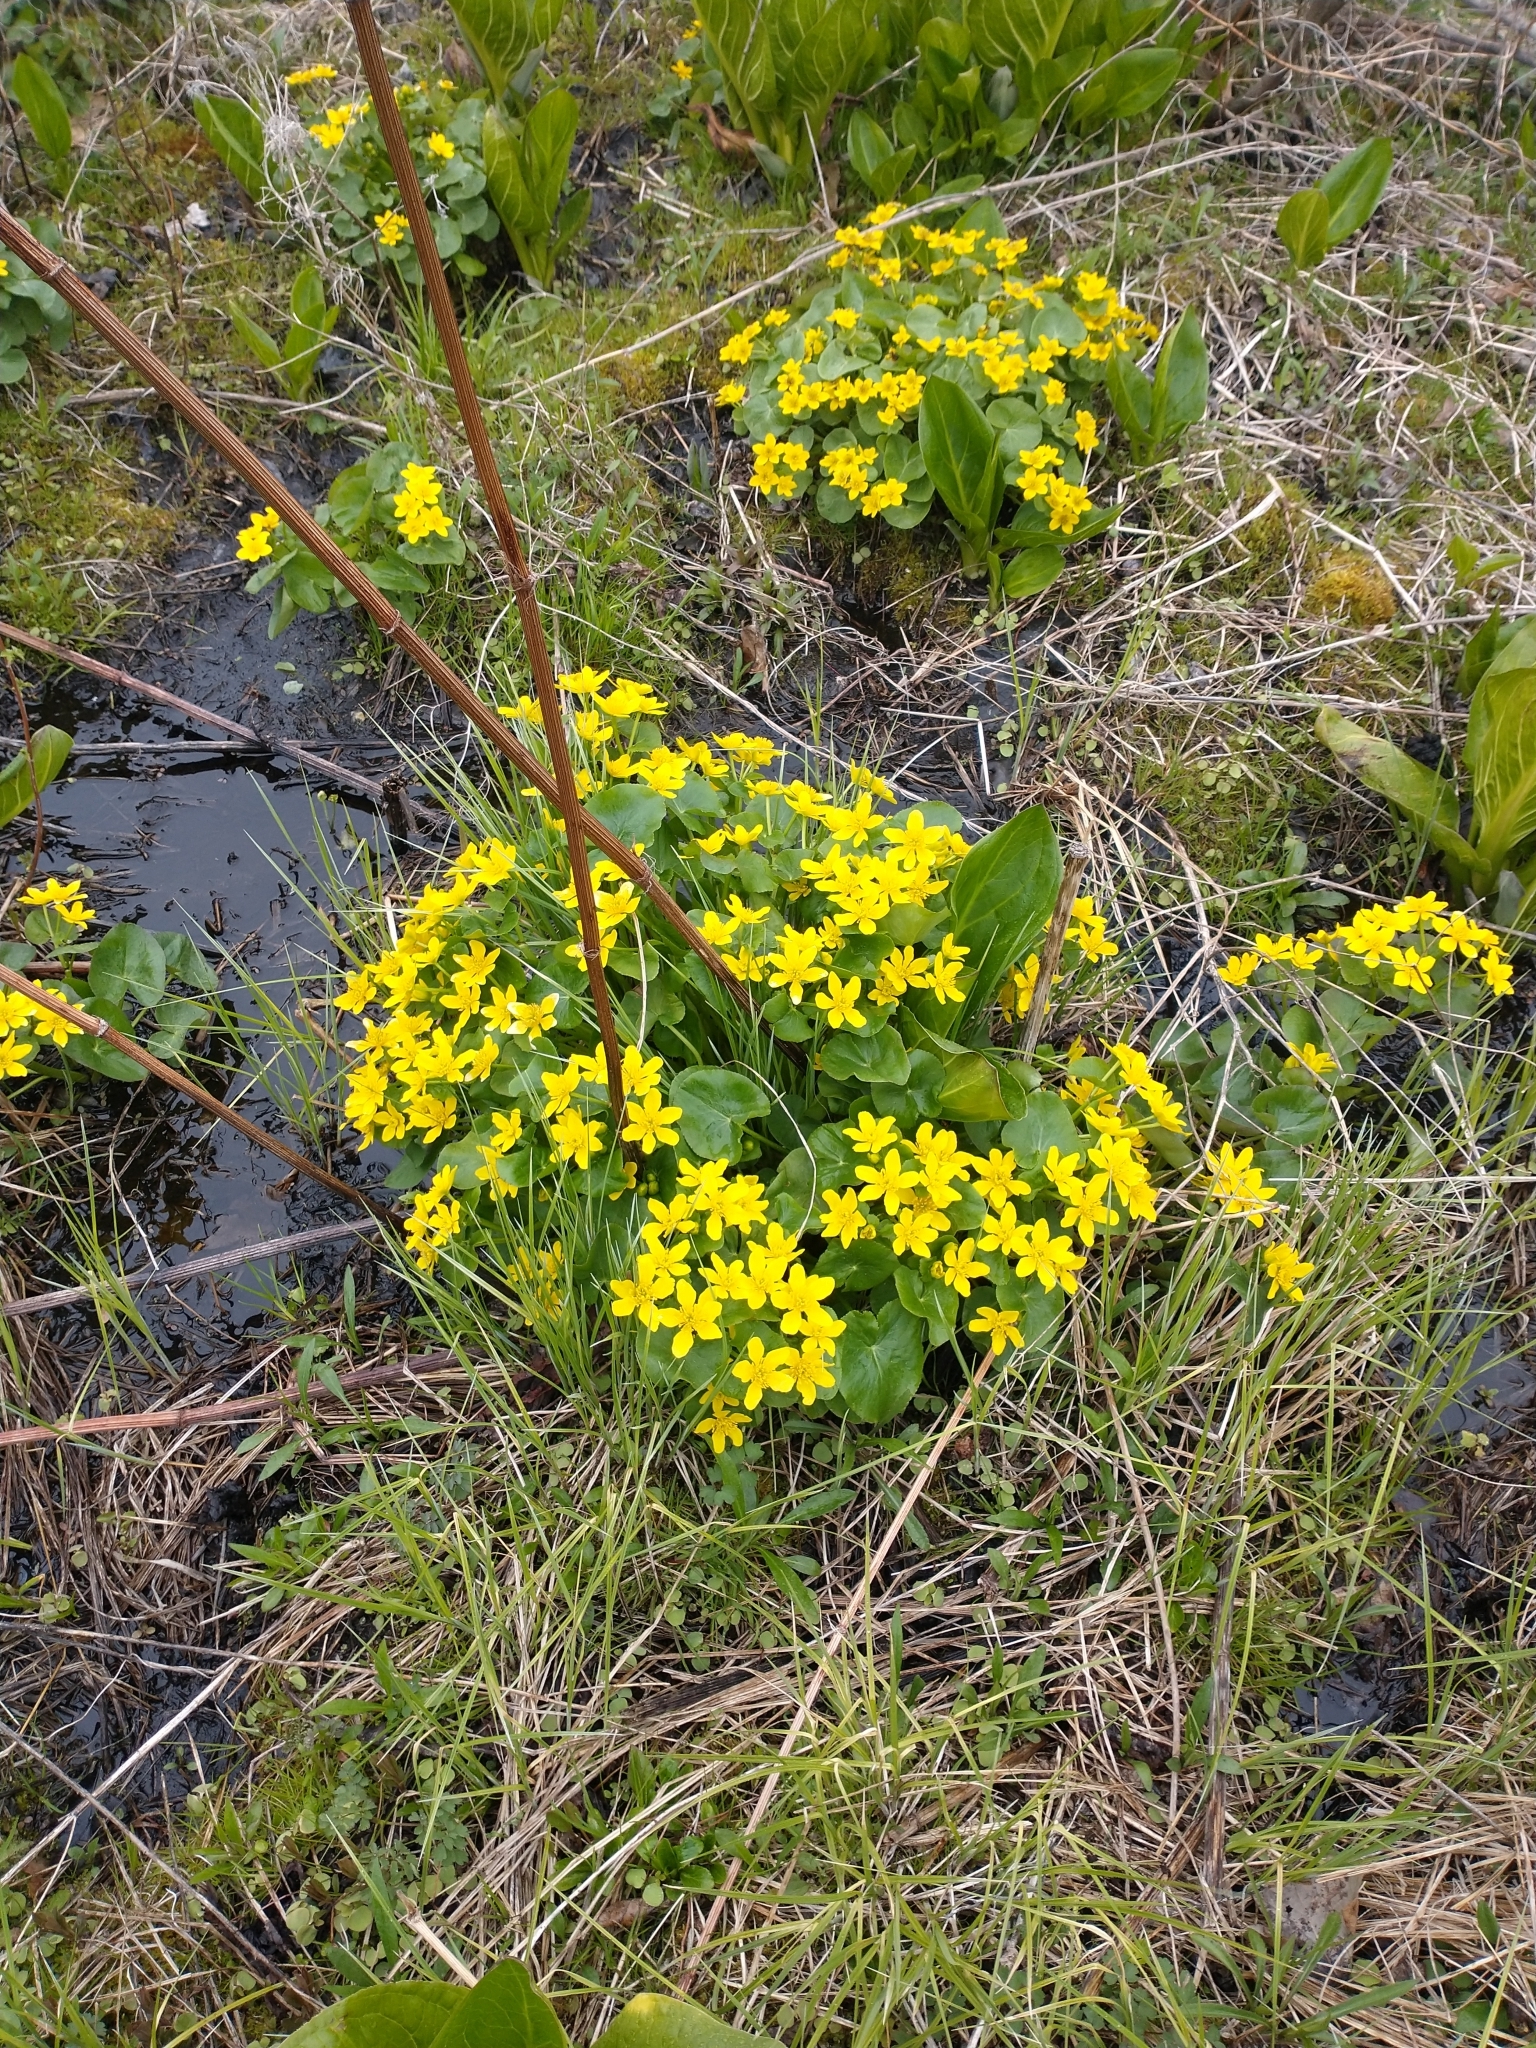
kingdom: Plantae
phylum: Tracheophyta
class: Magnoliopsida
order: Ranunculales
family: Ranunculaceae
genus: Caltha
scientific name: Caltha palustris
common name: Marsh marigold
